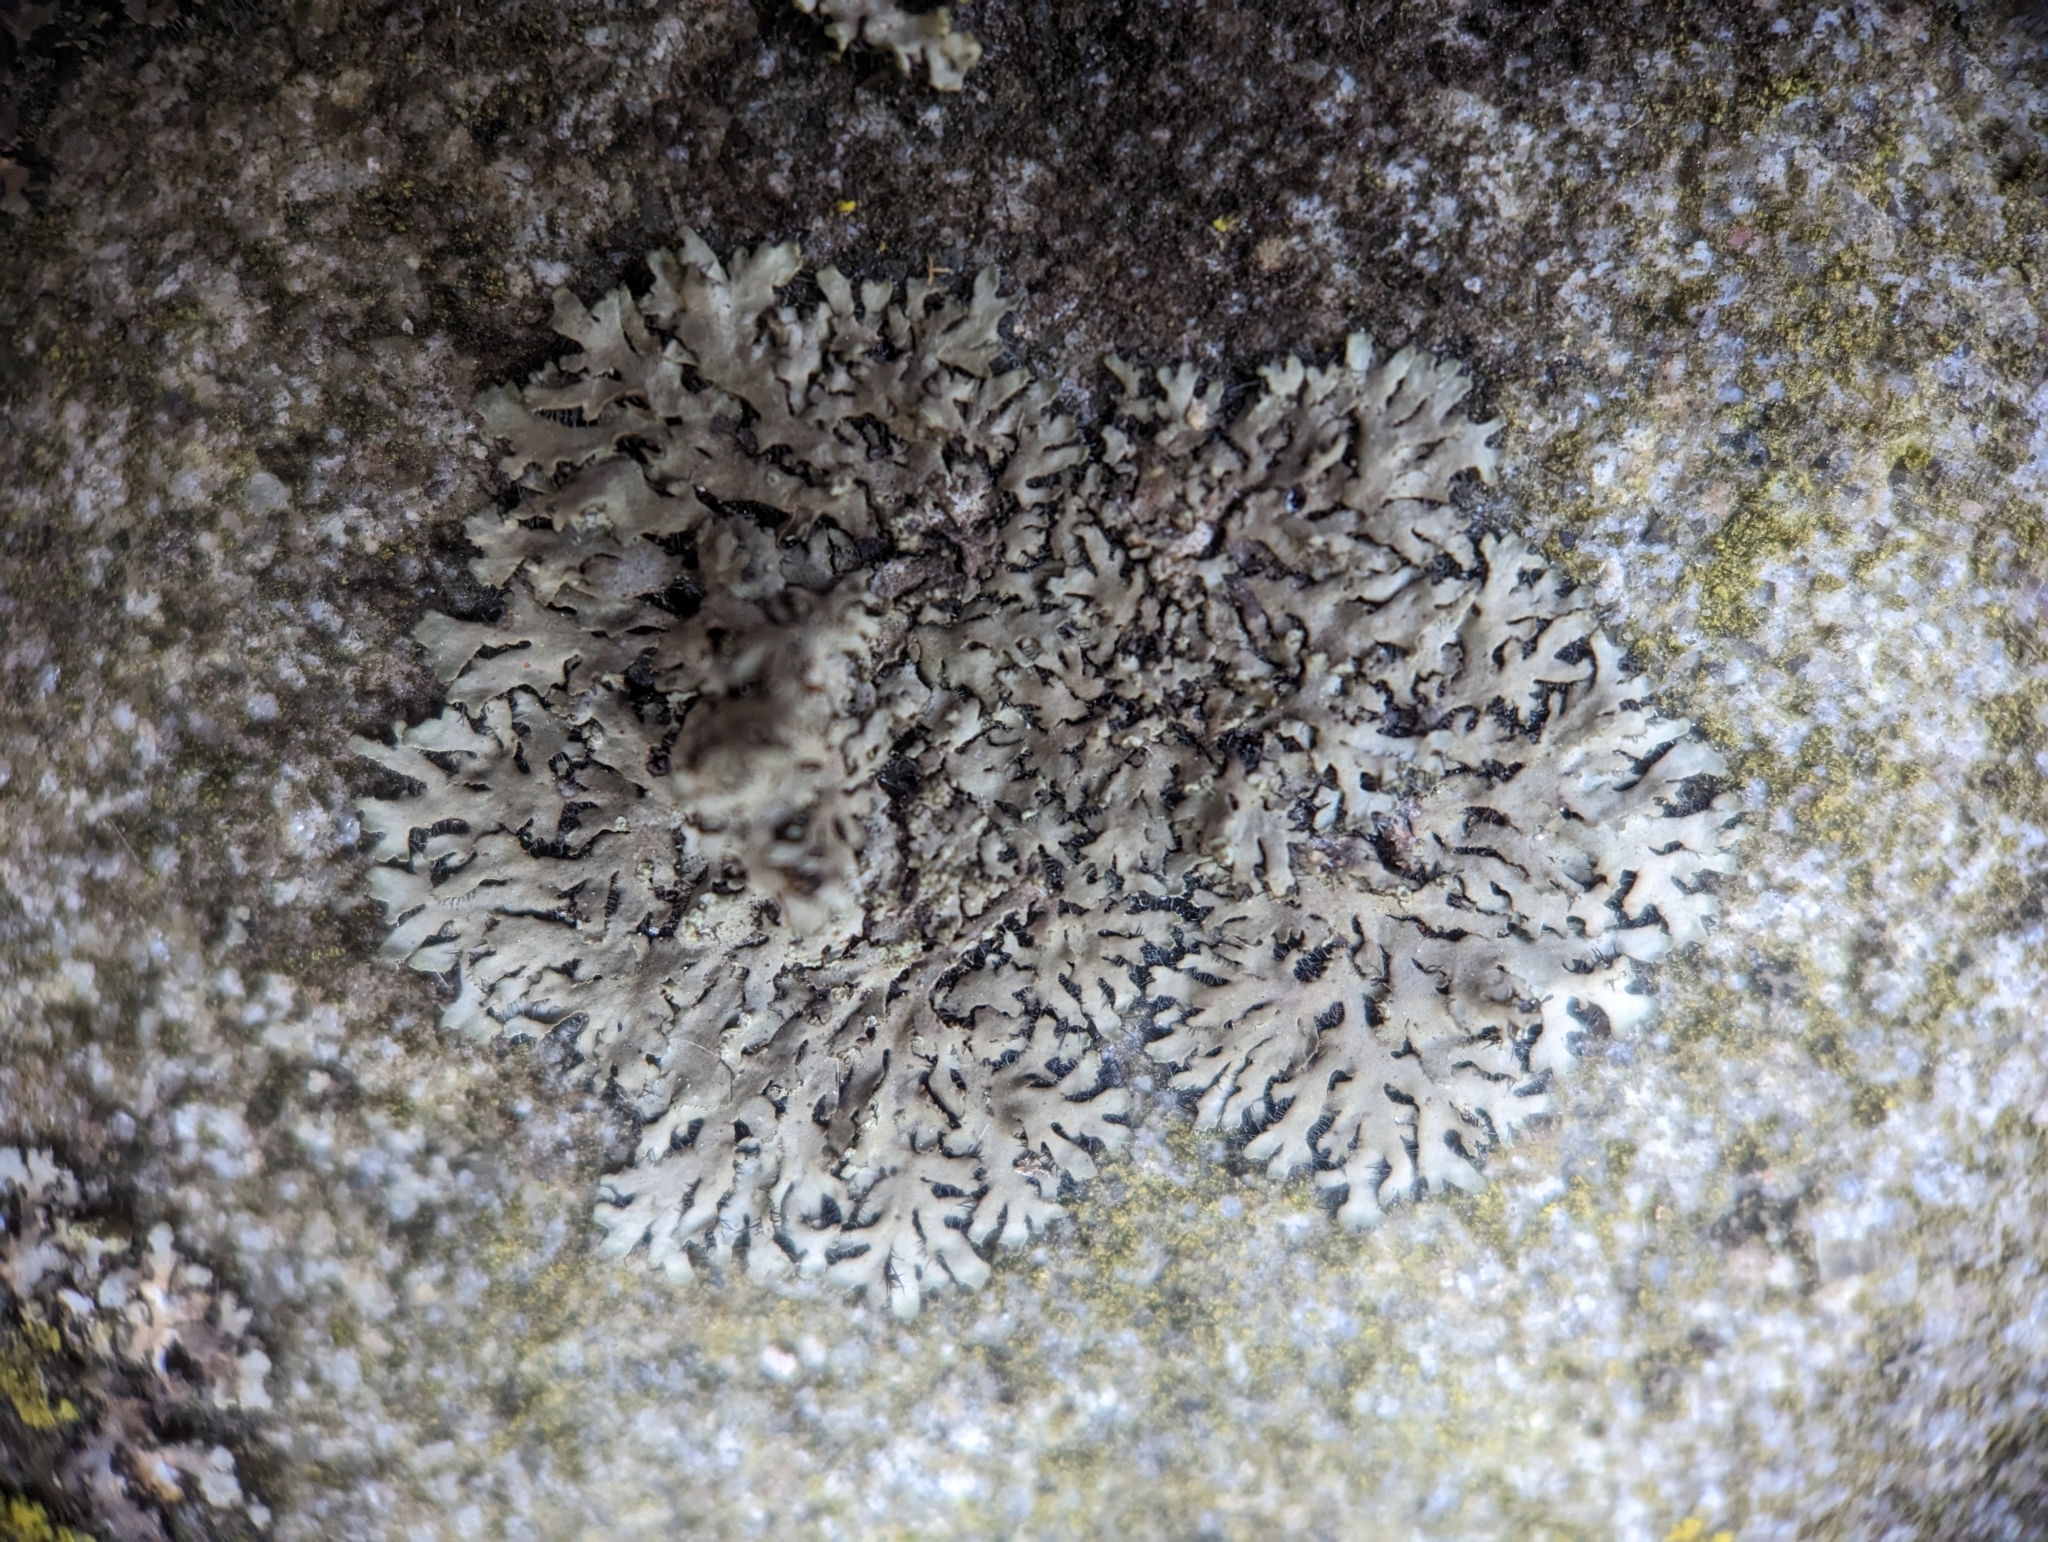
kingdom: Fungi
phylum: Ascomycota
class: Lecanoromycetes
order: Caliciales
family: Physciaceae
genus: Phaeophyscia
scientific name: Phaeophyscia rubropulchra
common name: Orange-cored shadow lichen
